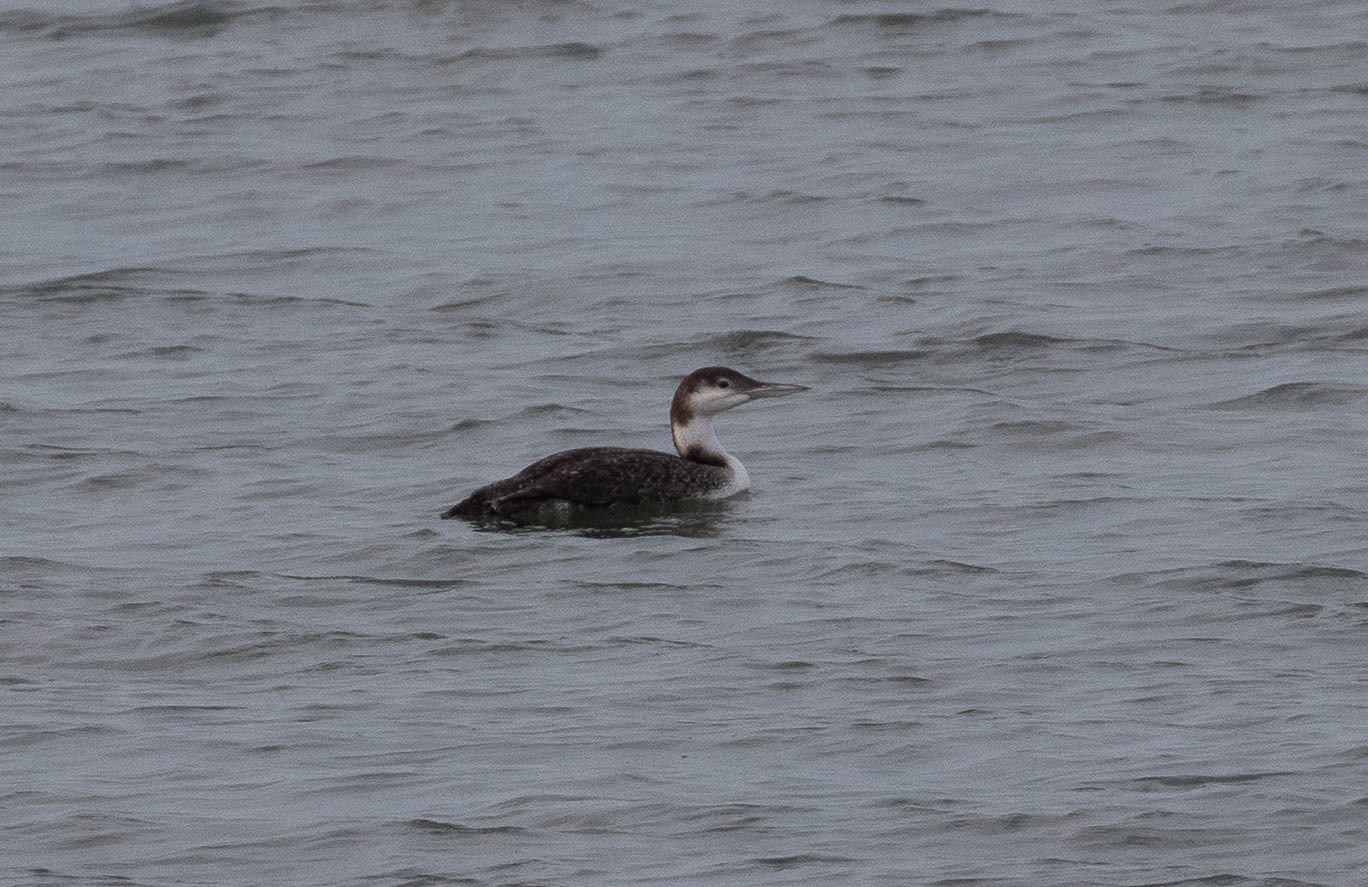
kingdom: Animalia
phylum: Chordata
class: Aves
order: Gaviiformes
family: Gaviidae
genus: Gavia
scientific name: Gavia immer
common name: Common loon
